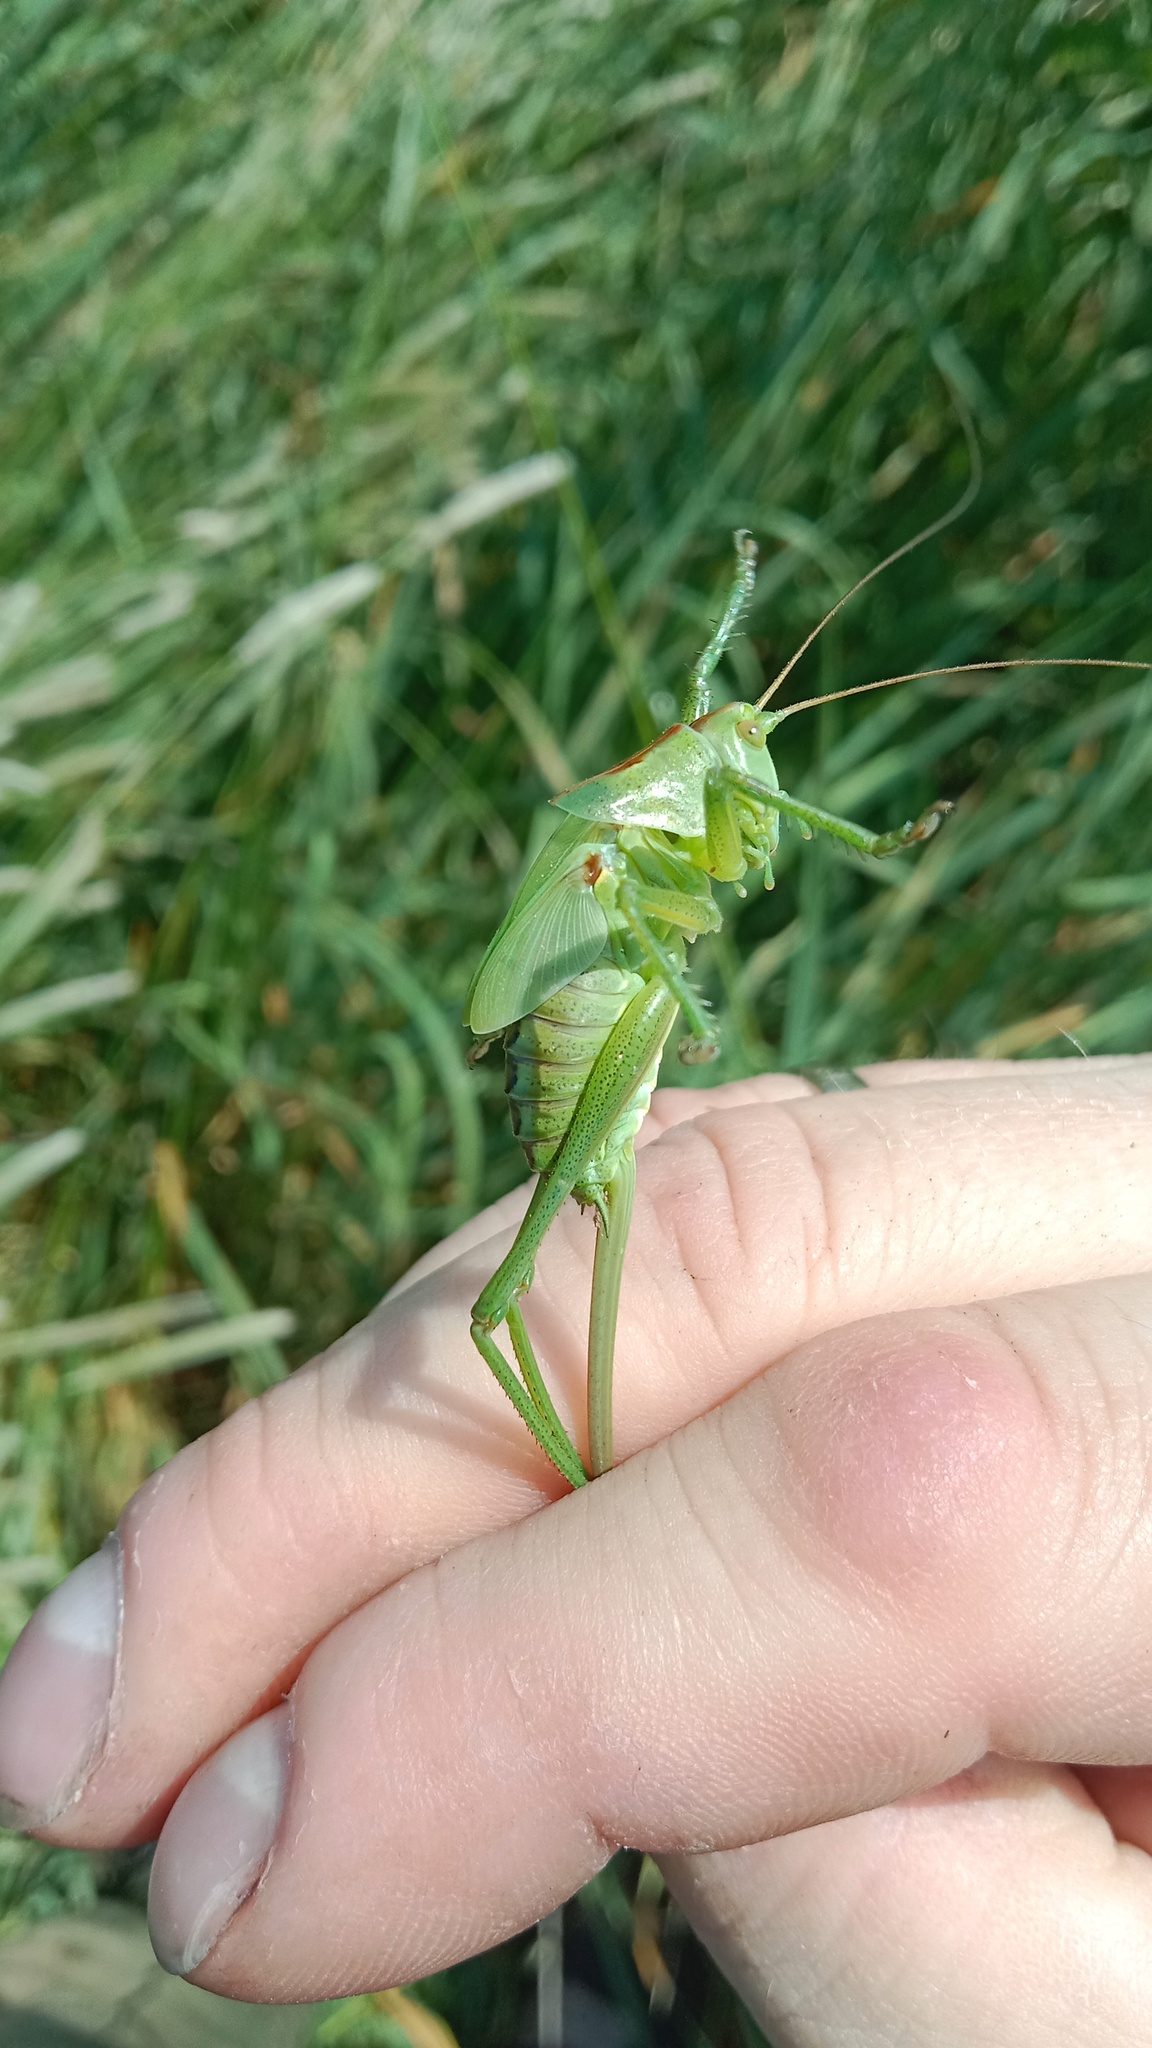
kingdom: Animalia
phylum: Arthropoda
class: Insecta
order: Orthoptera
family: Tettigoniidae
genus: Tettigonia
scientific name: Tettigonia viridissima
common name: Great green bush-cricket
